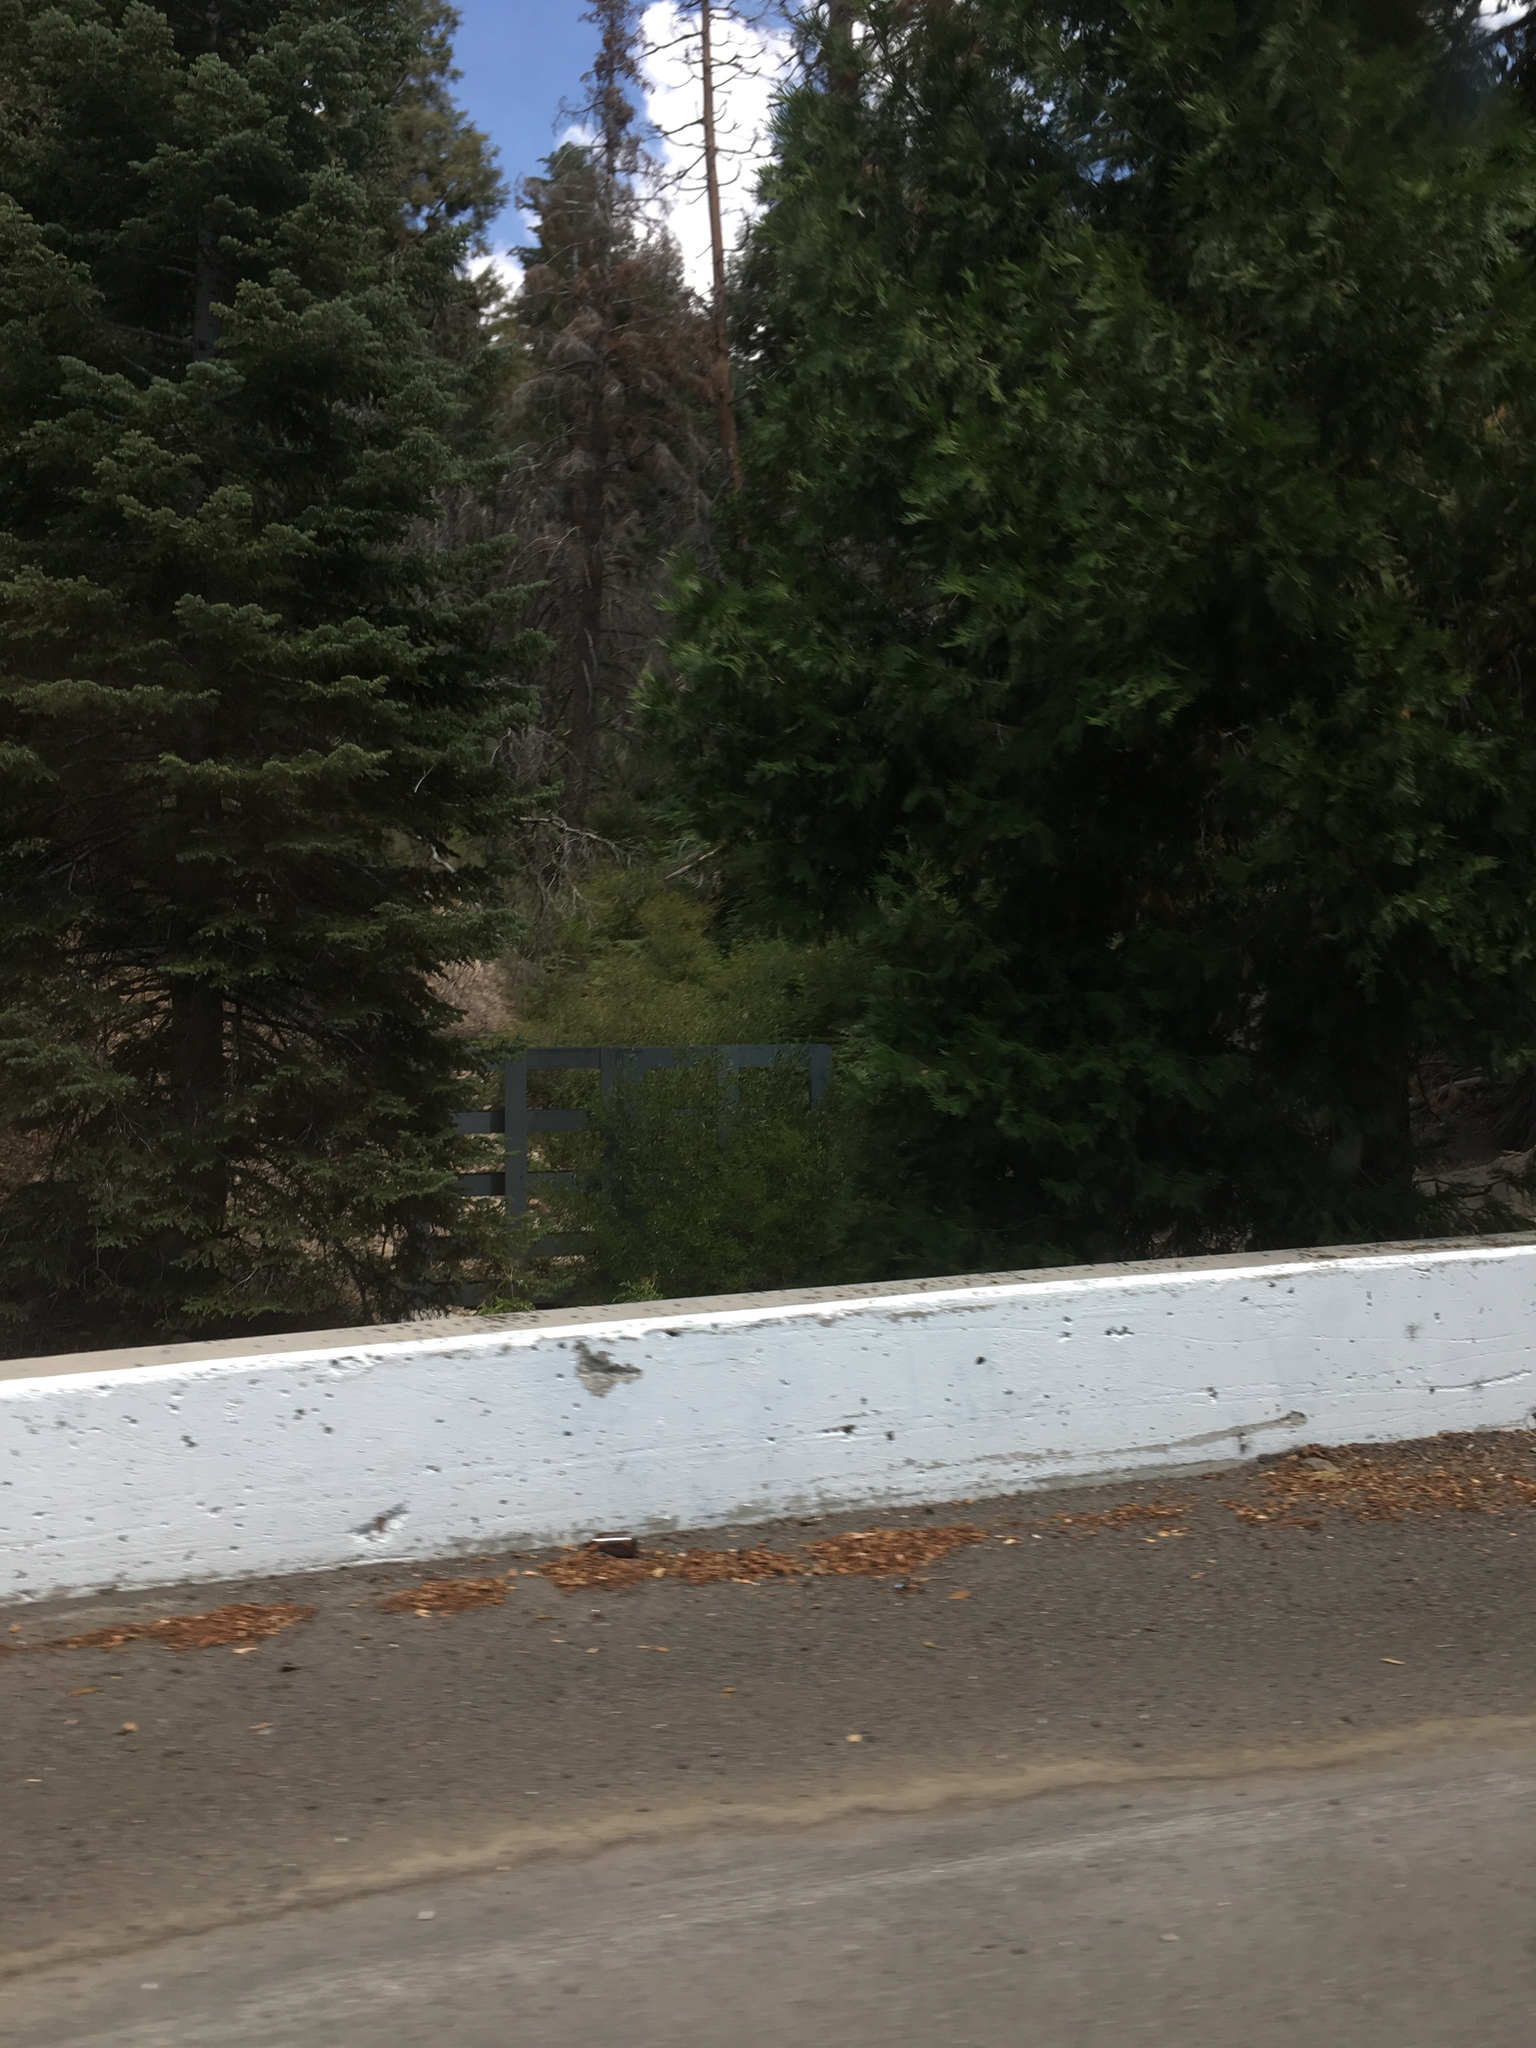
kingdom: Plantae
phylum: Tracheophyta
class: Pinopsida
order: Pinales
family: Cupressaceae
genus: Calocedrus
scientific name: Calocedrus decurrens
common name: Californian incense-cedar
